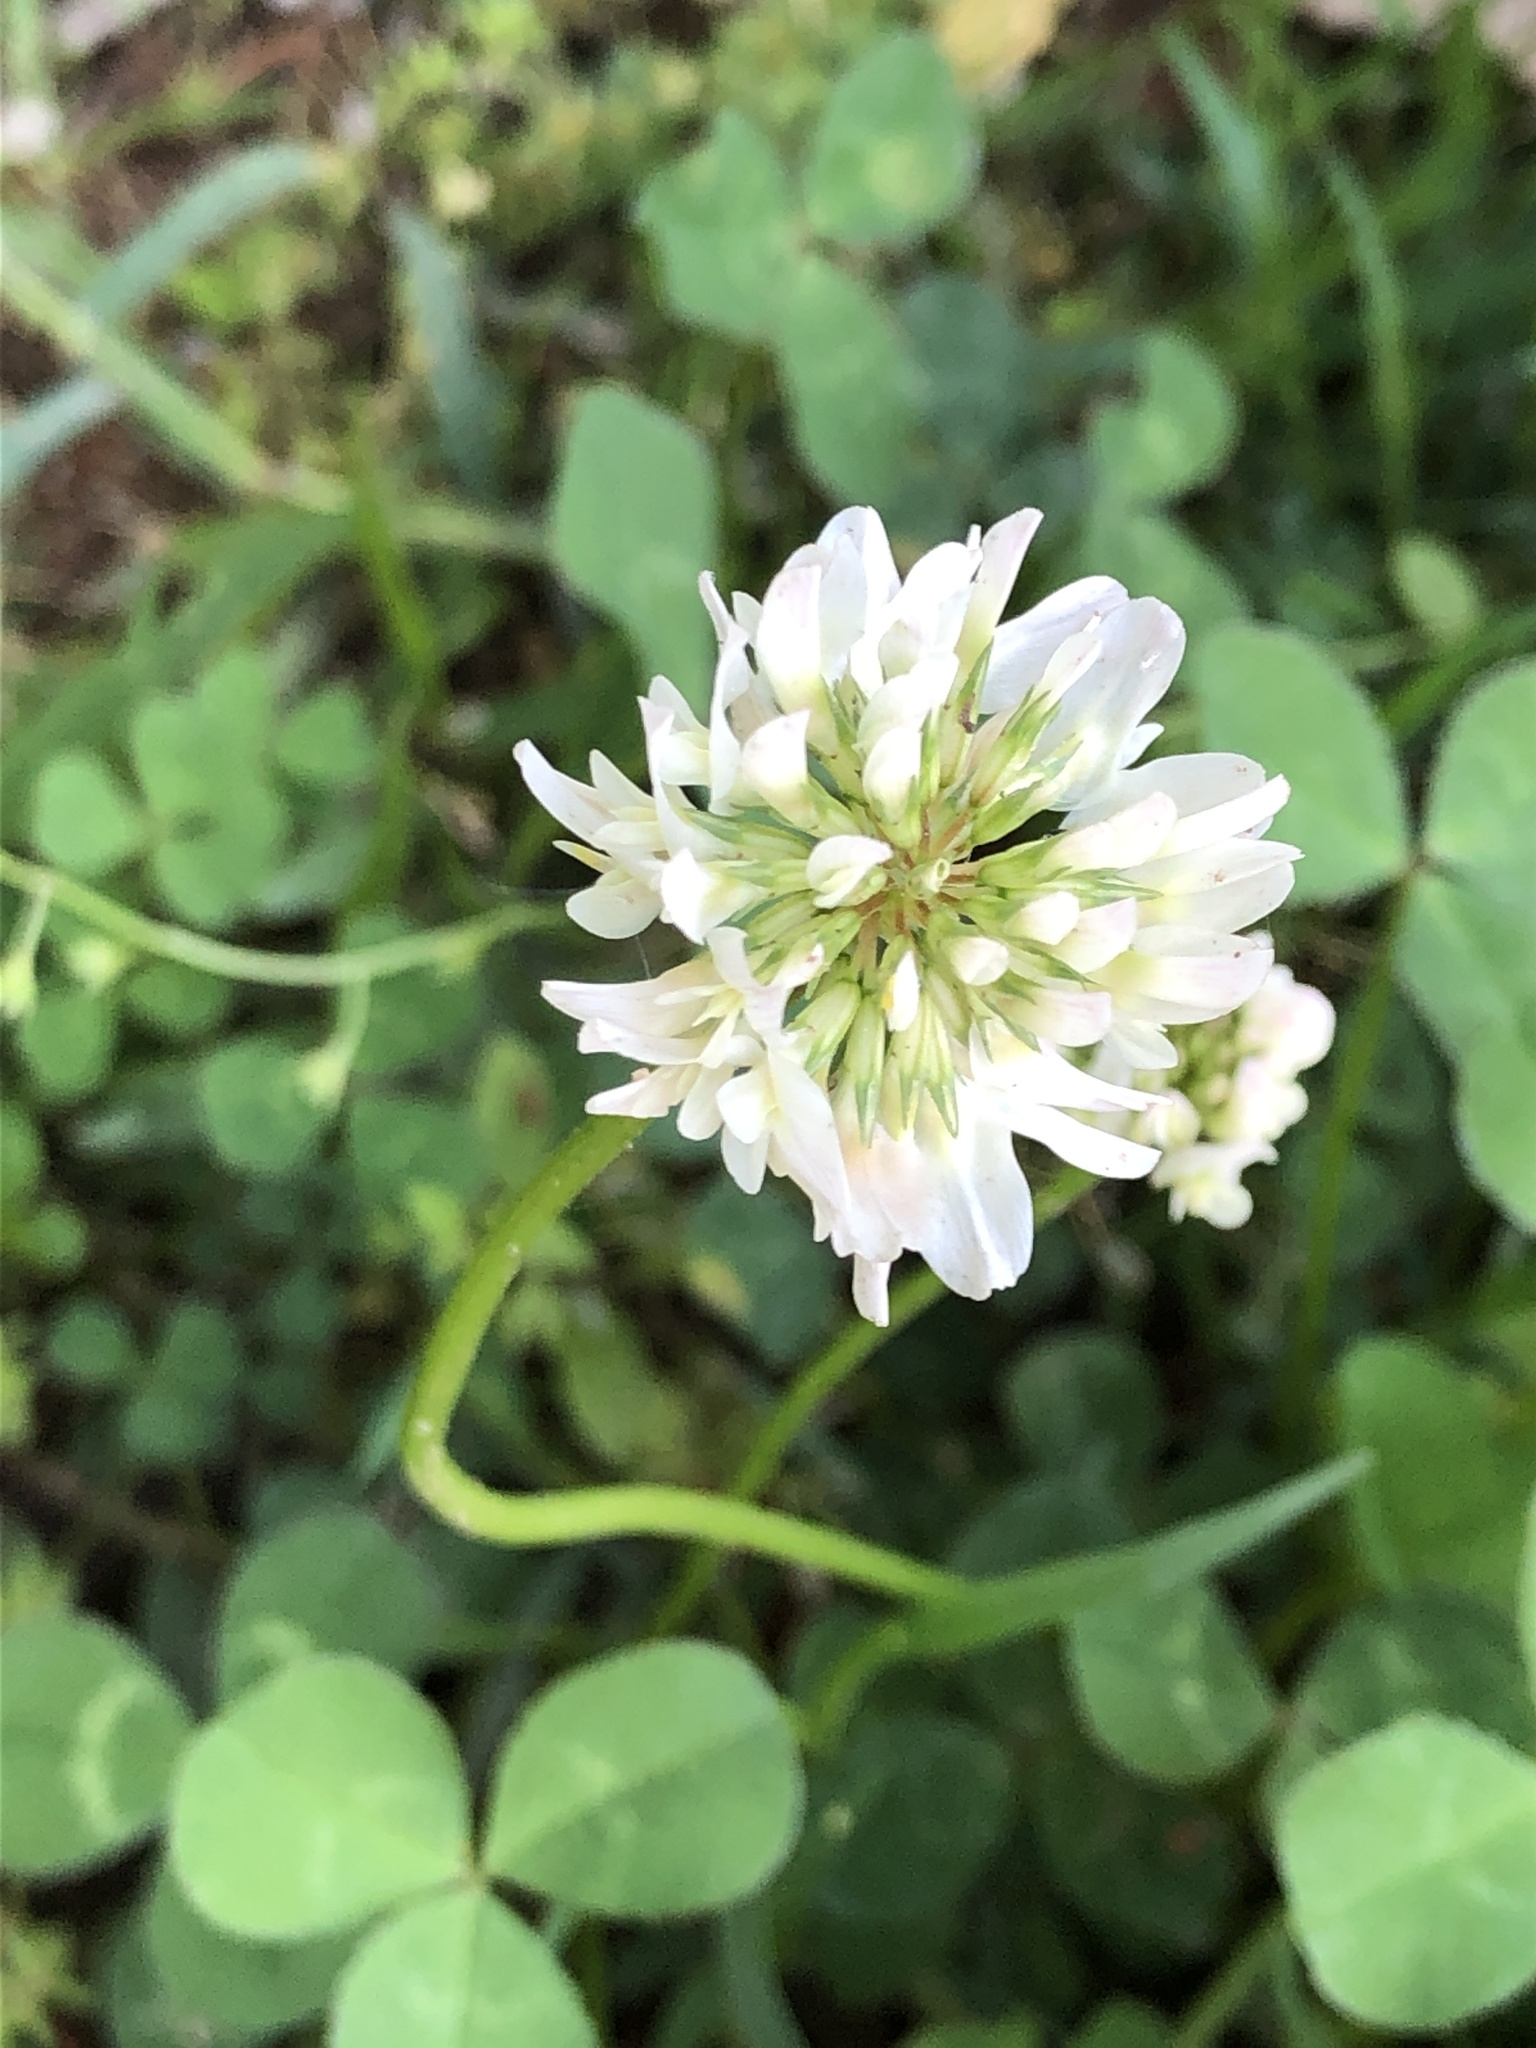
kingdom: Plantae
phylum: Tracheophyta
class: Magnoliopsida
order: Fabales
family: Fabaceae
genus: Trifolium
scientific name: Trifolium repens
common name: White clover
